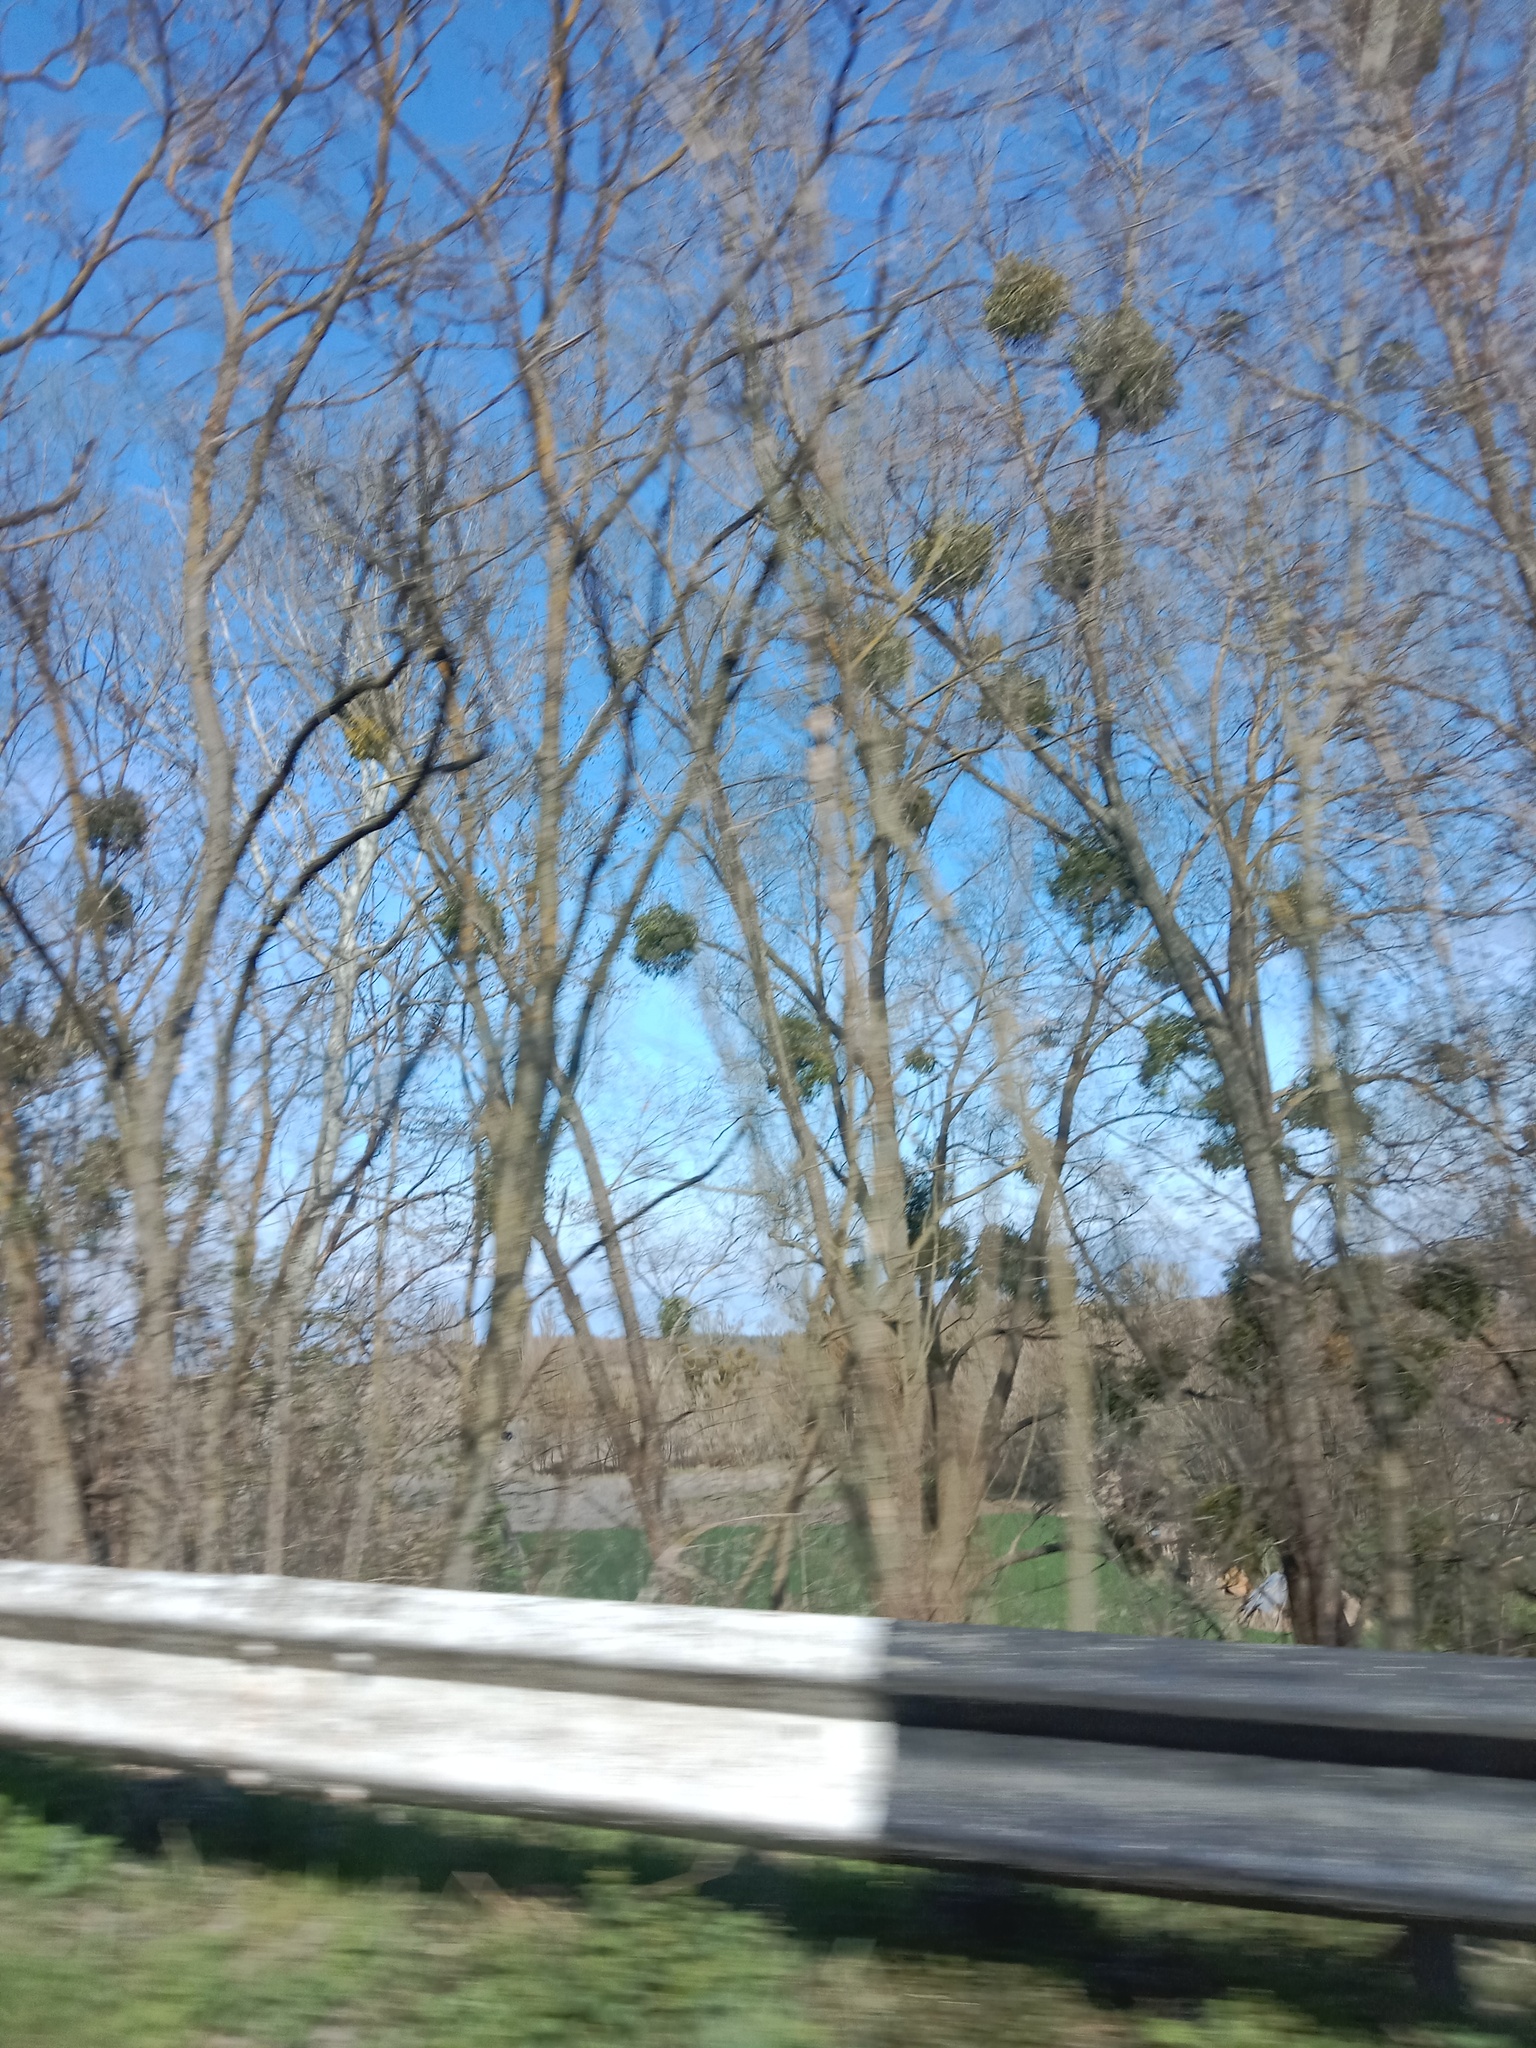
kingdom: Plantae
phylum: Tracheophyta
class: Magnoliopsida
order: Santalales
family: Viscaceae
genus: Viscum
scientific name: Viscum album
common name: Mistletoe
